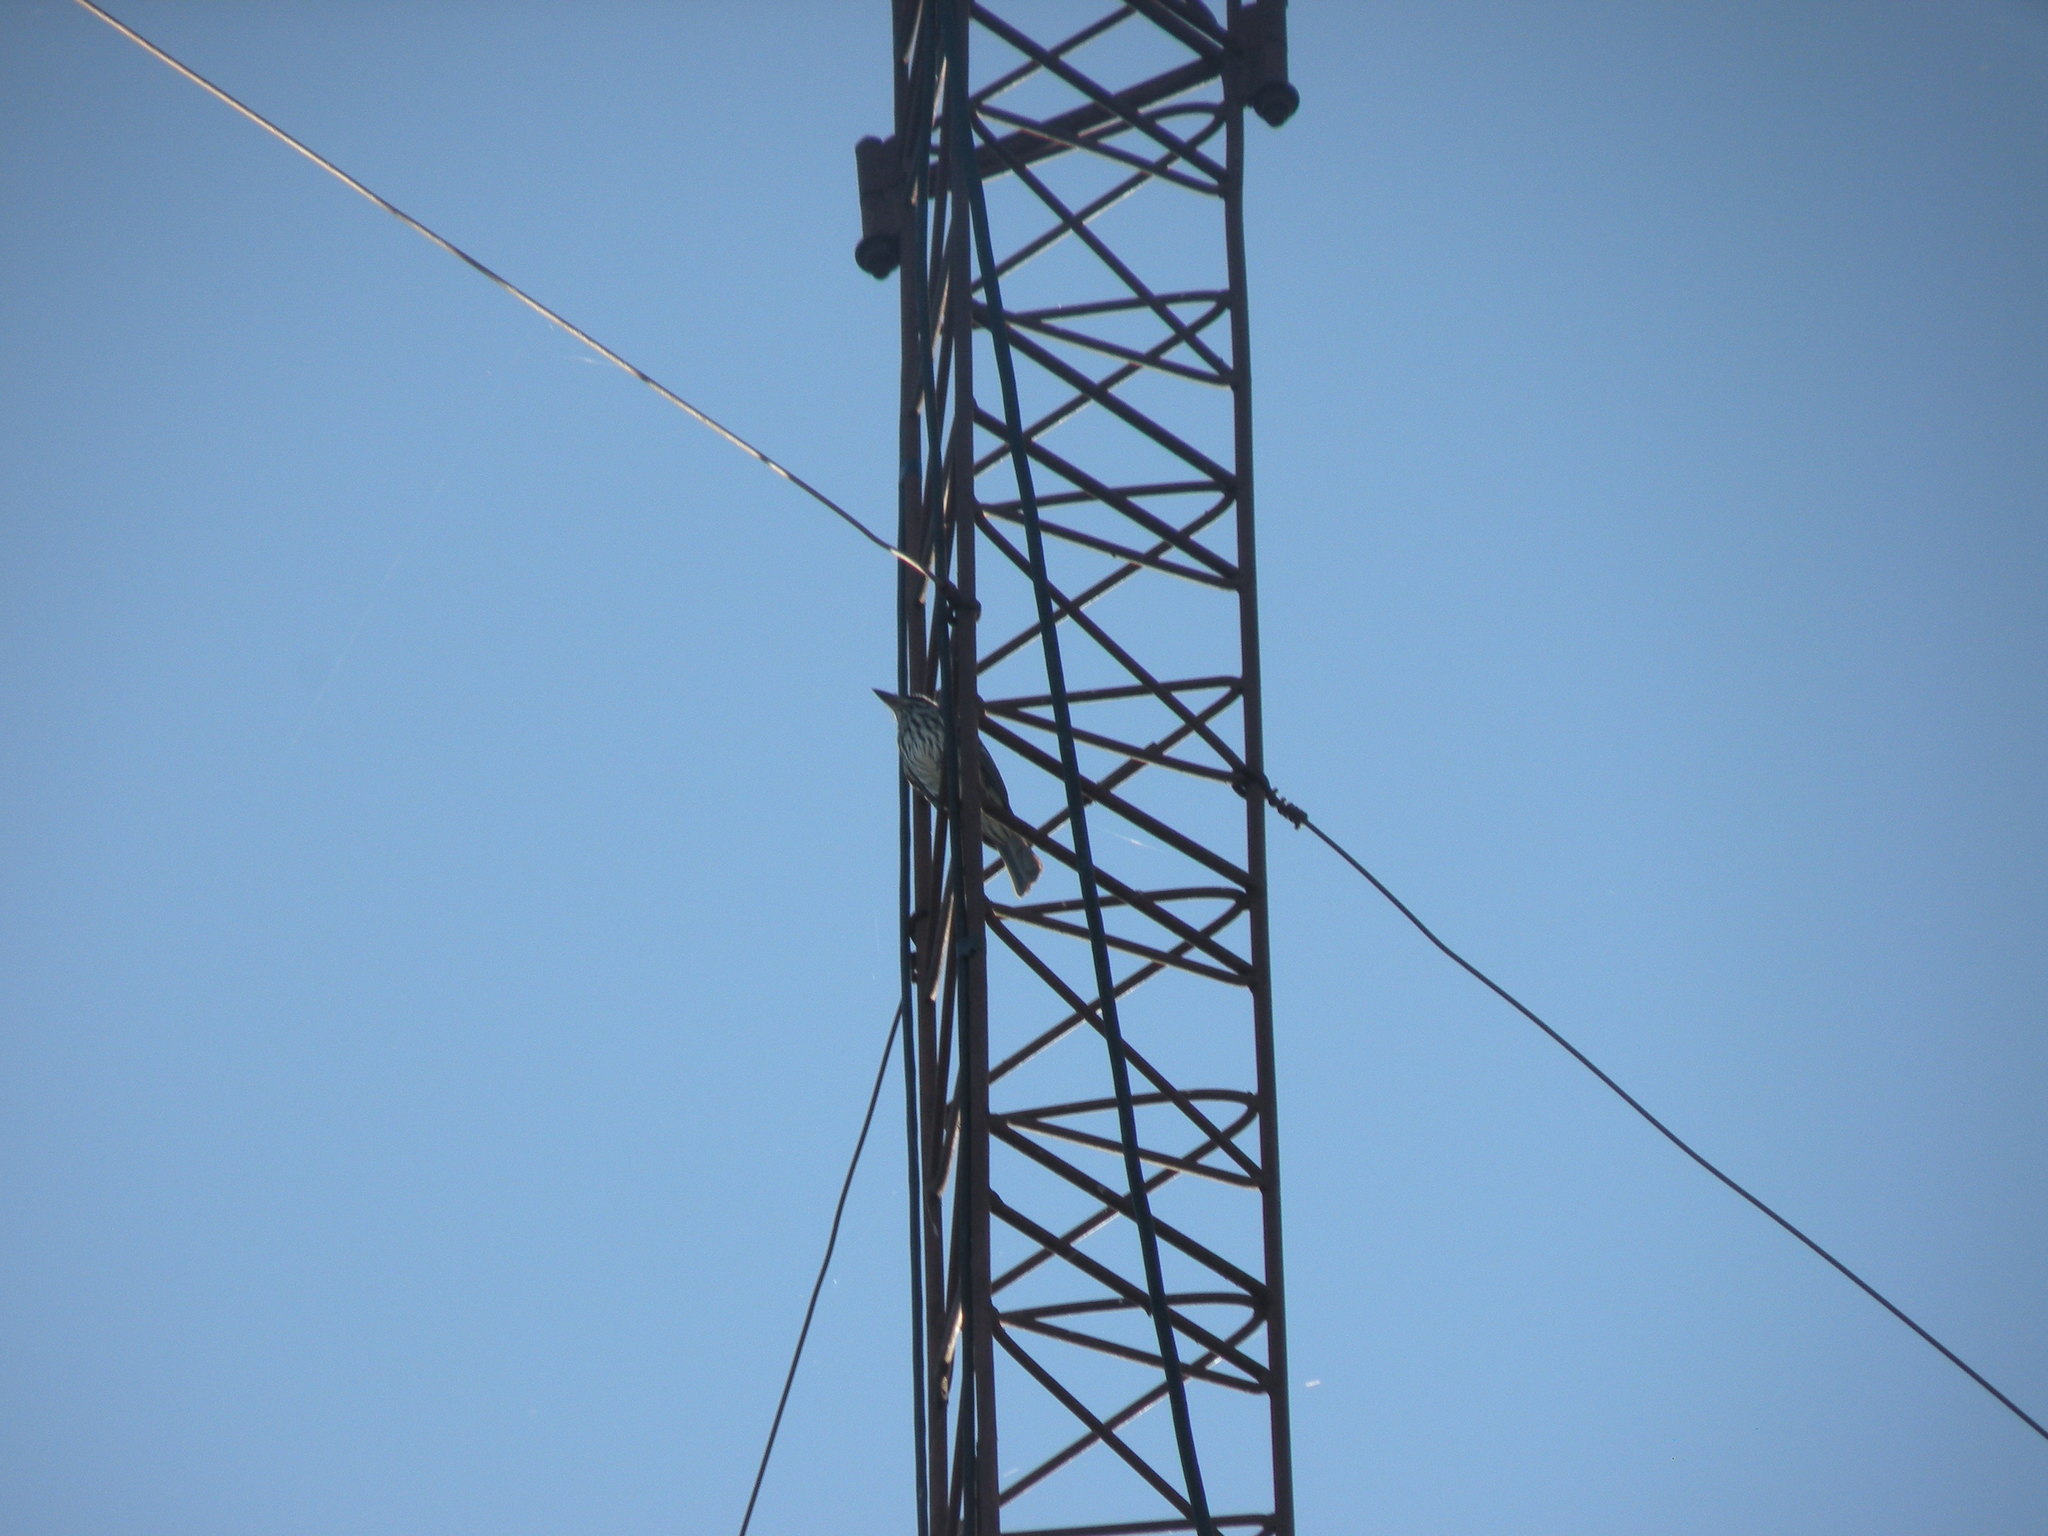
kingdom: Animalia
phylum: Chordata
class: Aves
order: Passeriformes
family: Tyrannidae
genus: Myiodynastes
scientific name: Myiodynastes maculatus
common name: Streaked flycatcher
